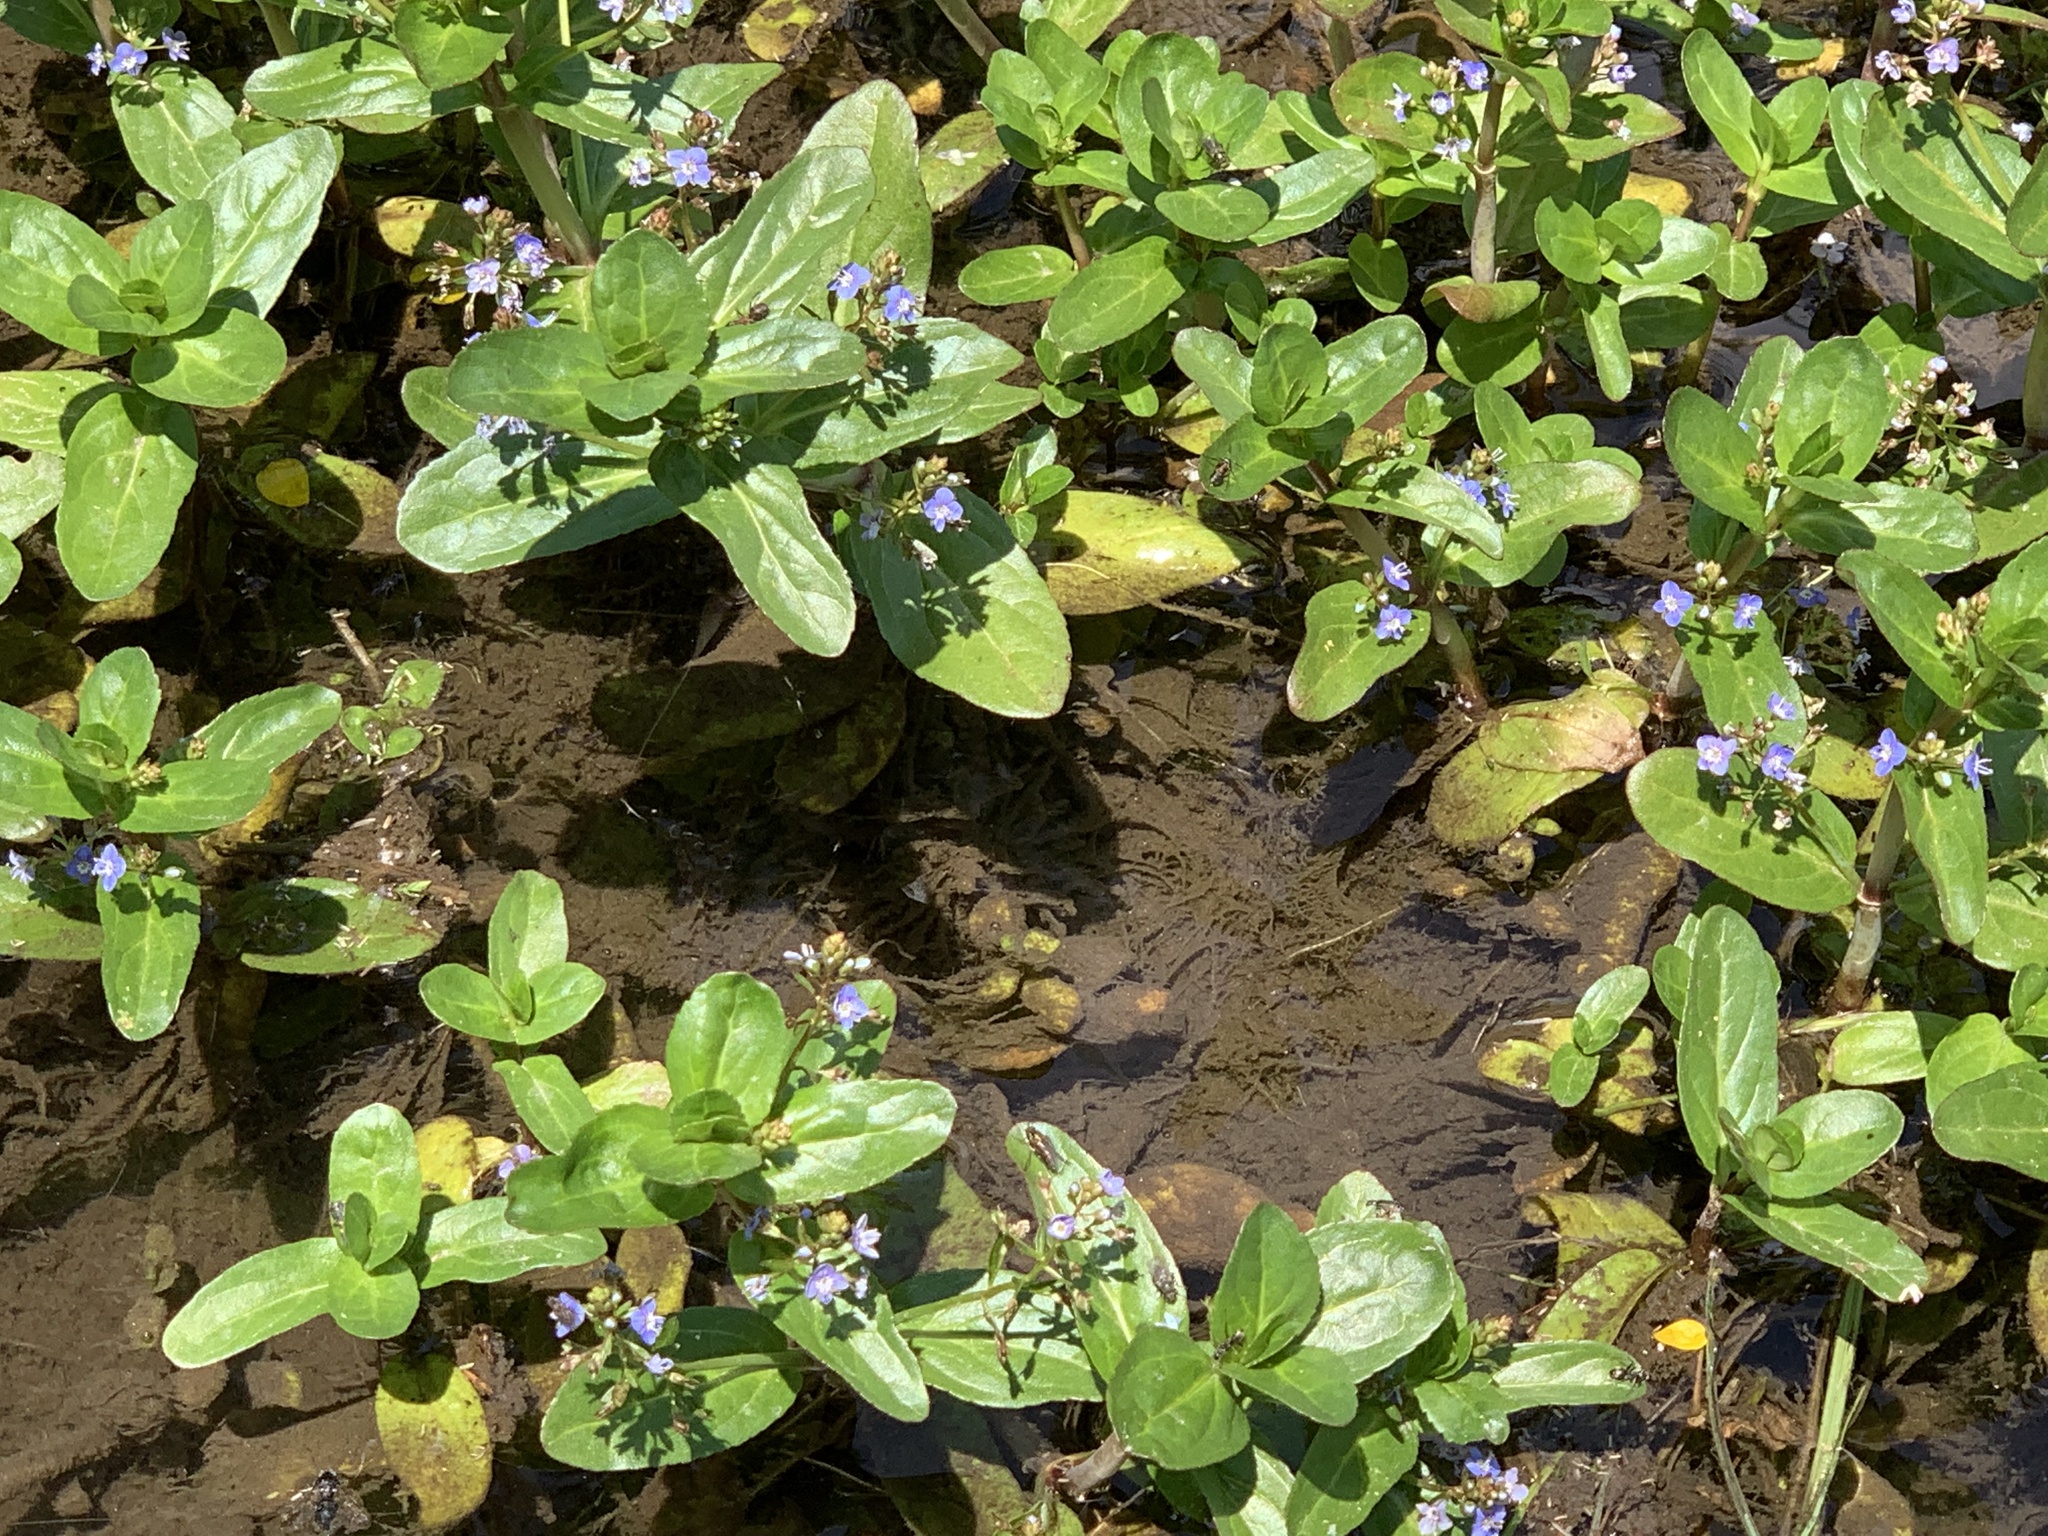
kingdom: Plantae
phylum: Tracheophyta
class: Magnoliopsida
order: Lamiales
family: Plantaginaceae
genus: Veronica
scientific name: Veronica beccabunga
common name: Brooklime
